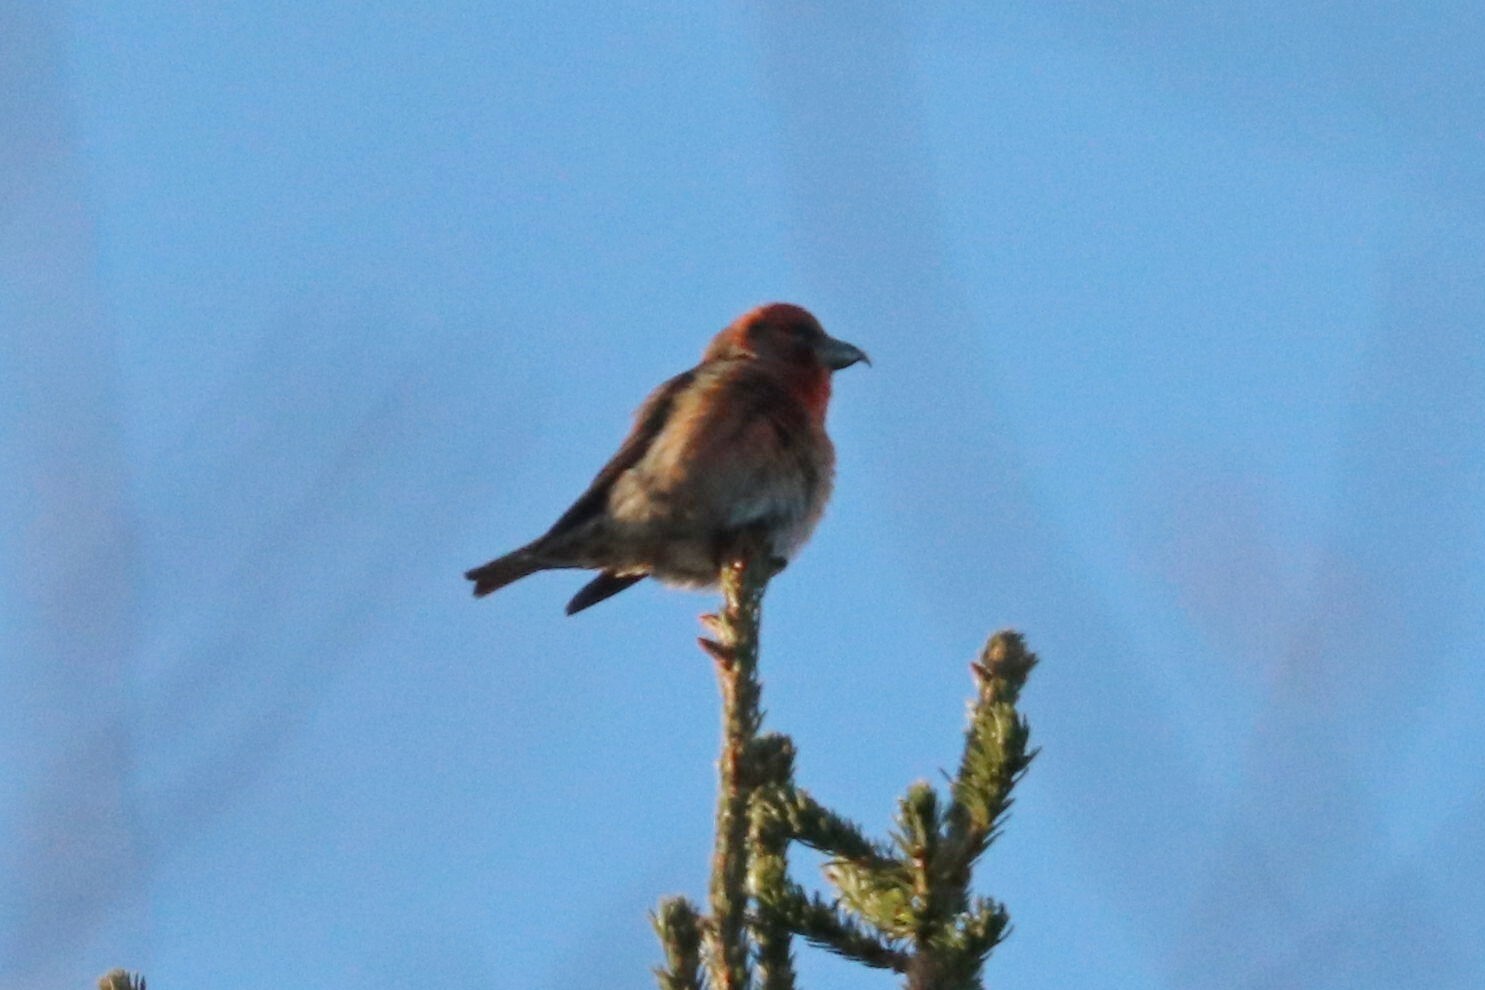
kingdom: Animalia
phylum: Chordata
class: Aves
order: Passeriformes
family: Fringillidae
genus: Loxia
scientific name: Loxia curvirostra
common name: Red crossbill
